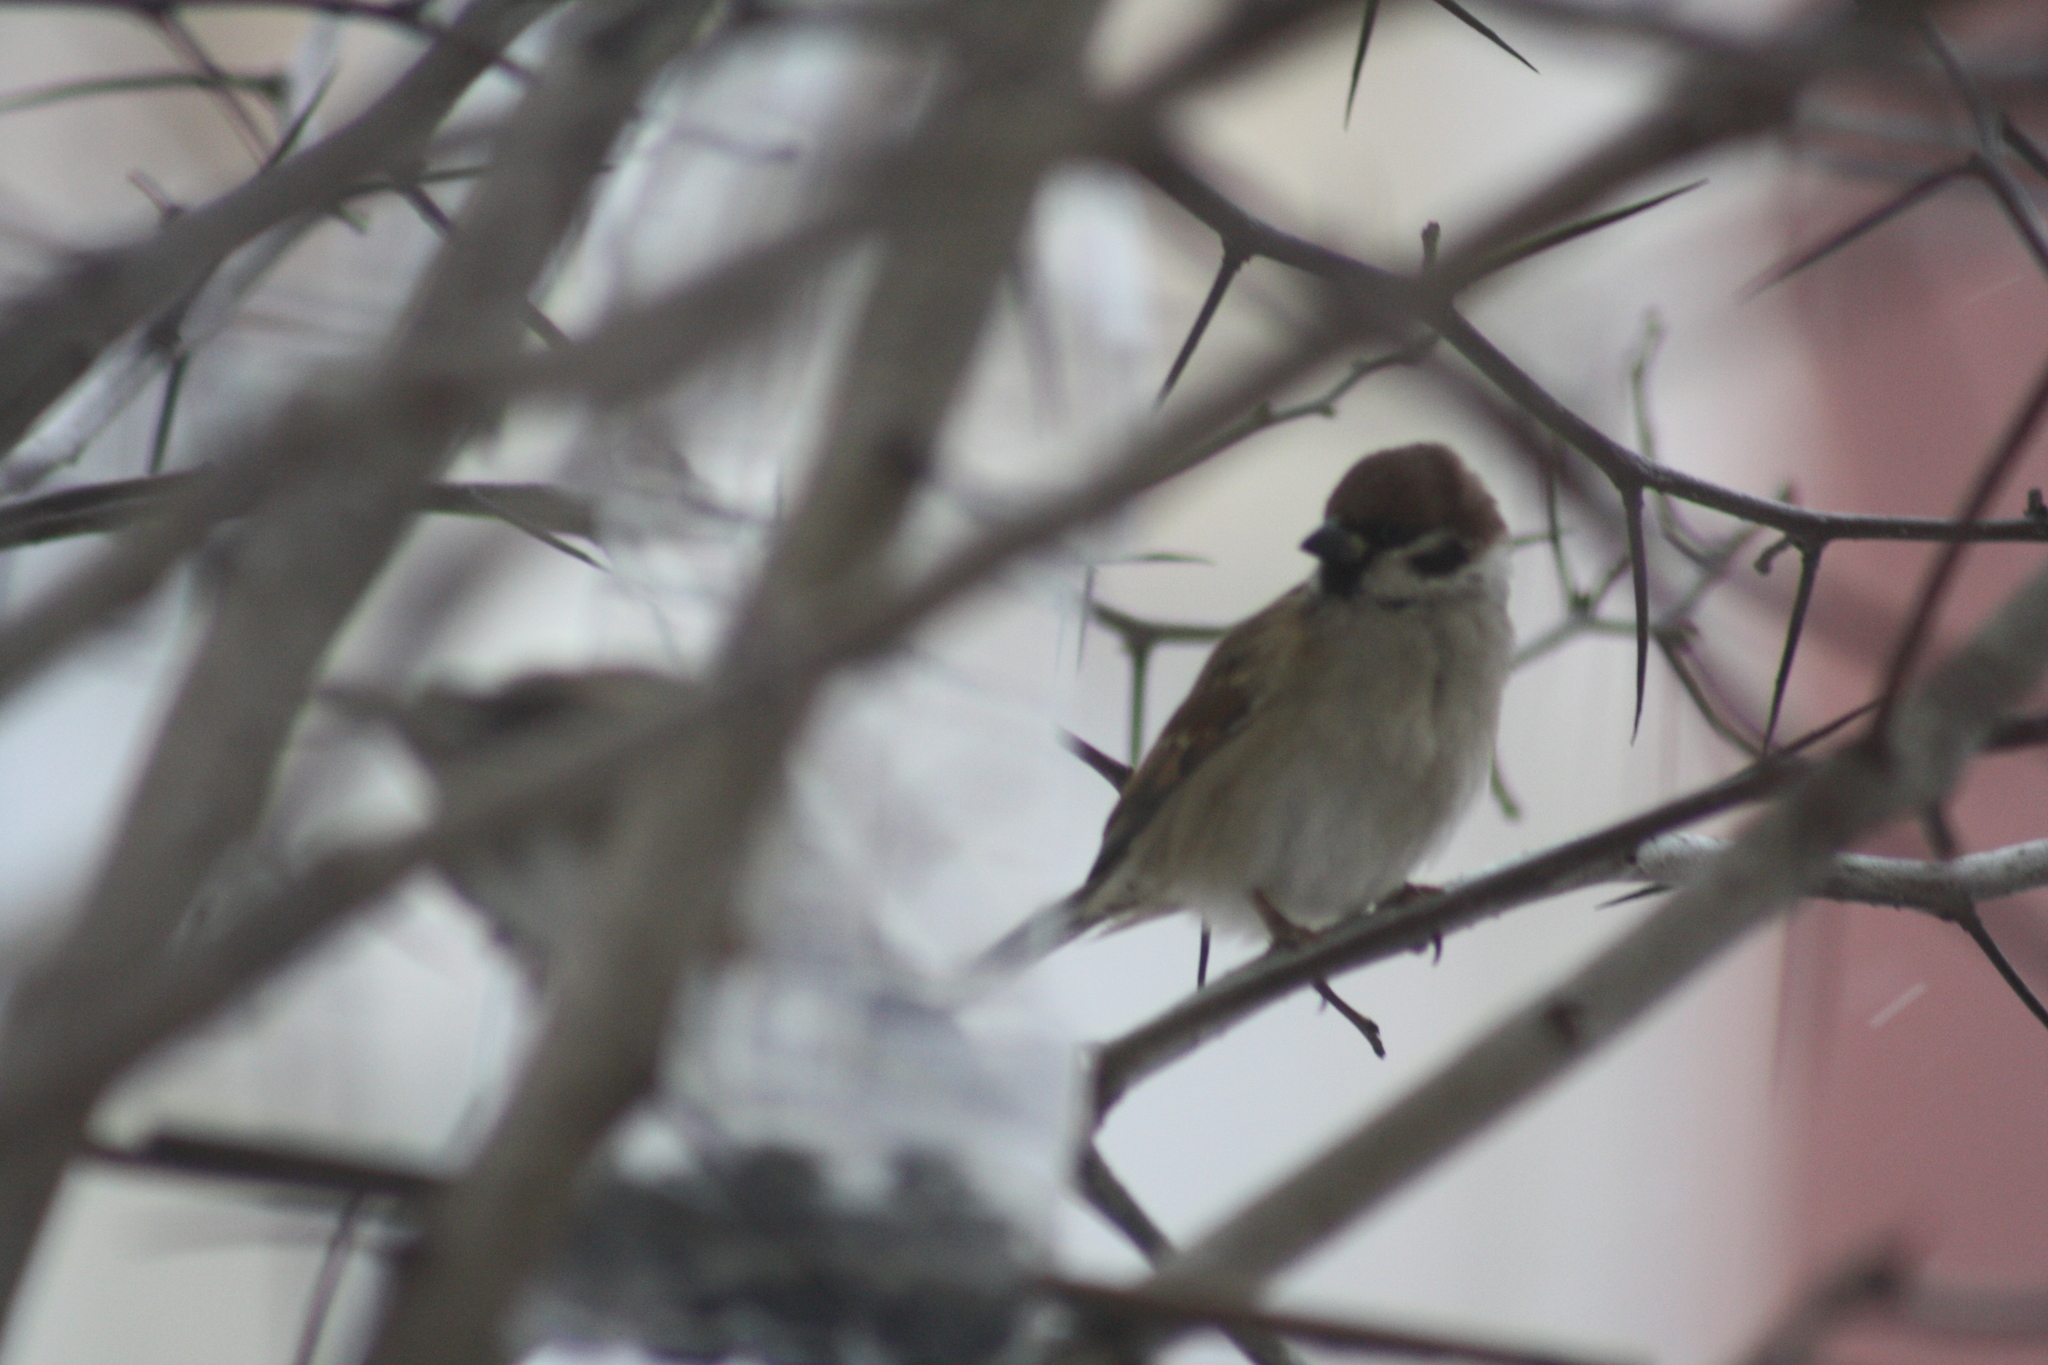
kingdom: Animalia
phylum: Chordata
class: Aves
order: Passeriformes
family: Passeridae
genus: Passer
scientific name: Passer montanus
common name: Eurasian tree sparrow
